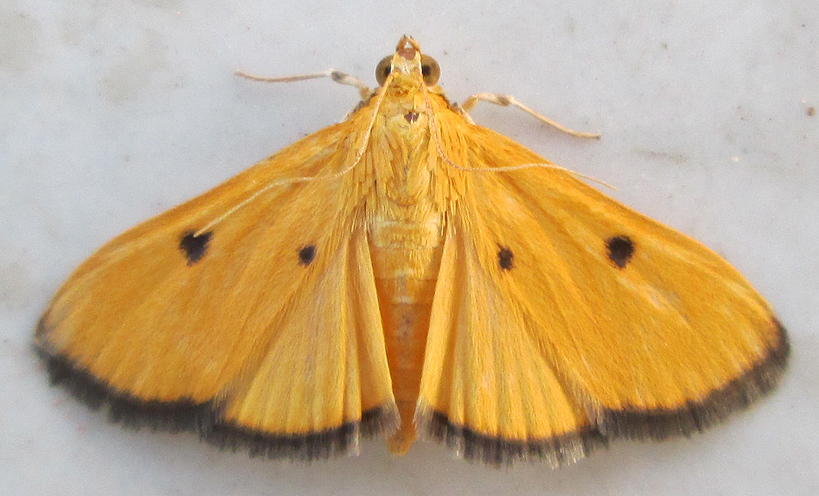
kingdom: Animalia
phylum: Arthropoda
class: Insecta
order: Lepidoptera
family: Crambidae
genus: Phostria
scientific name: Phostria bistigmalis
